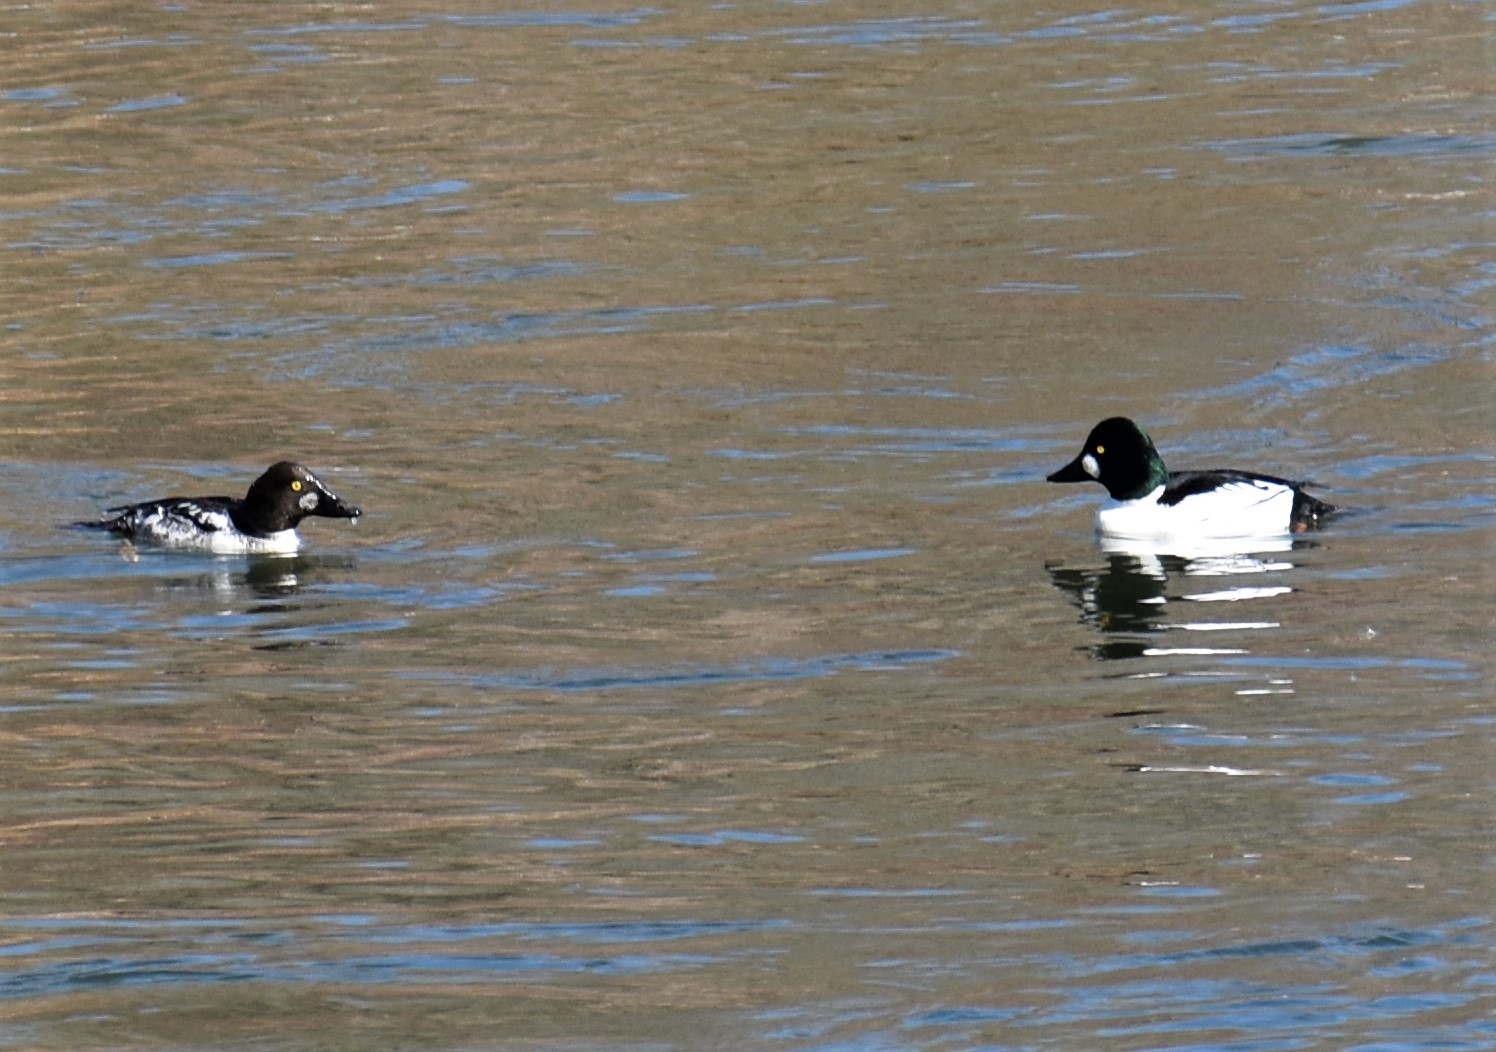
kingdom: Animalia
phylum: Chordata
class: Aves
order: Anseriformes
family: Anatidae
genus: Bucephala
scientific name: Bucephala clangula
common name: Common goldeneye
